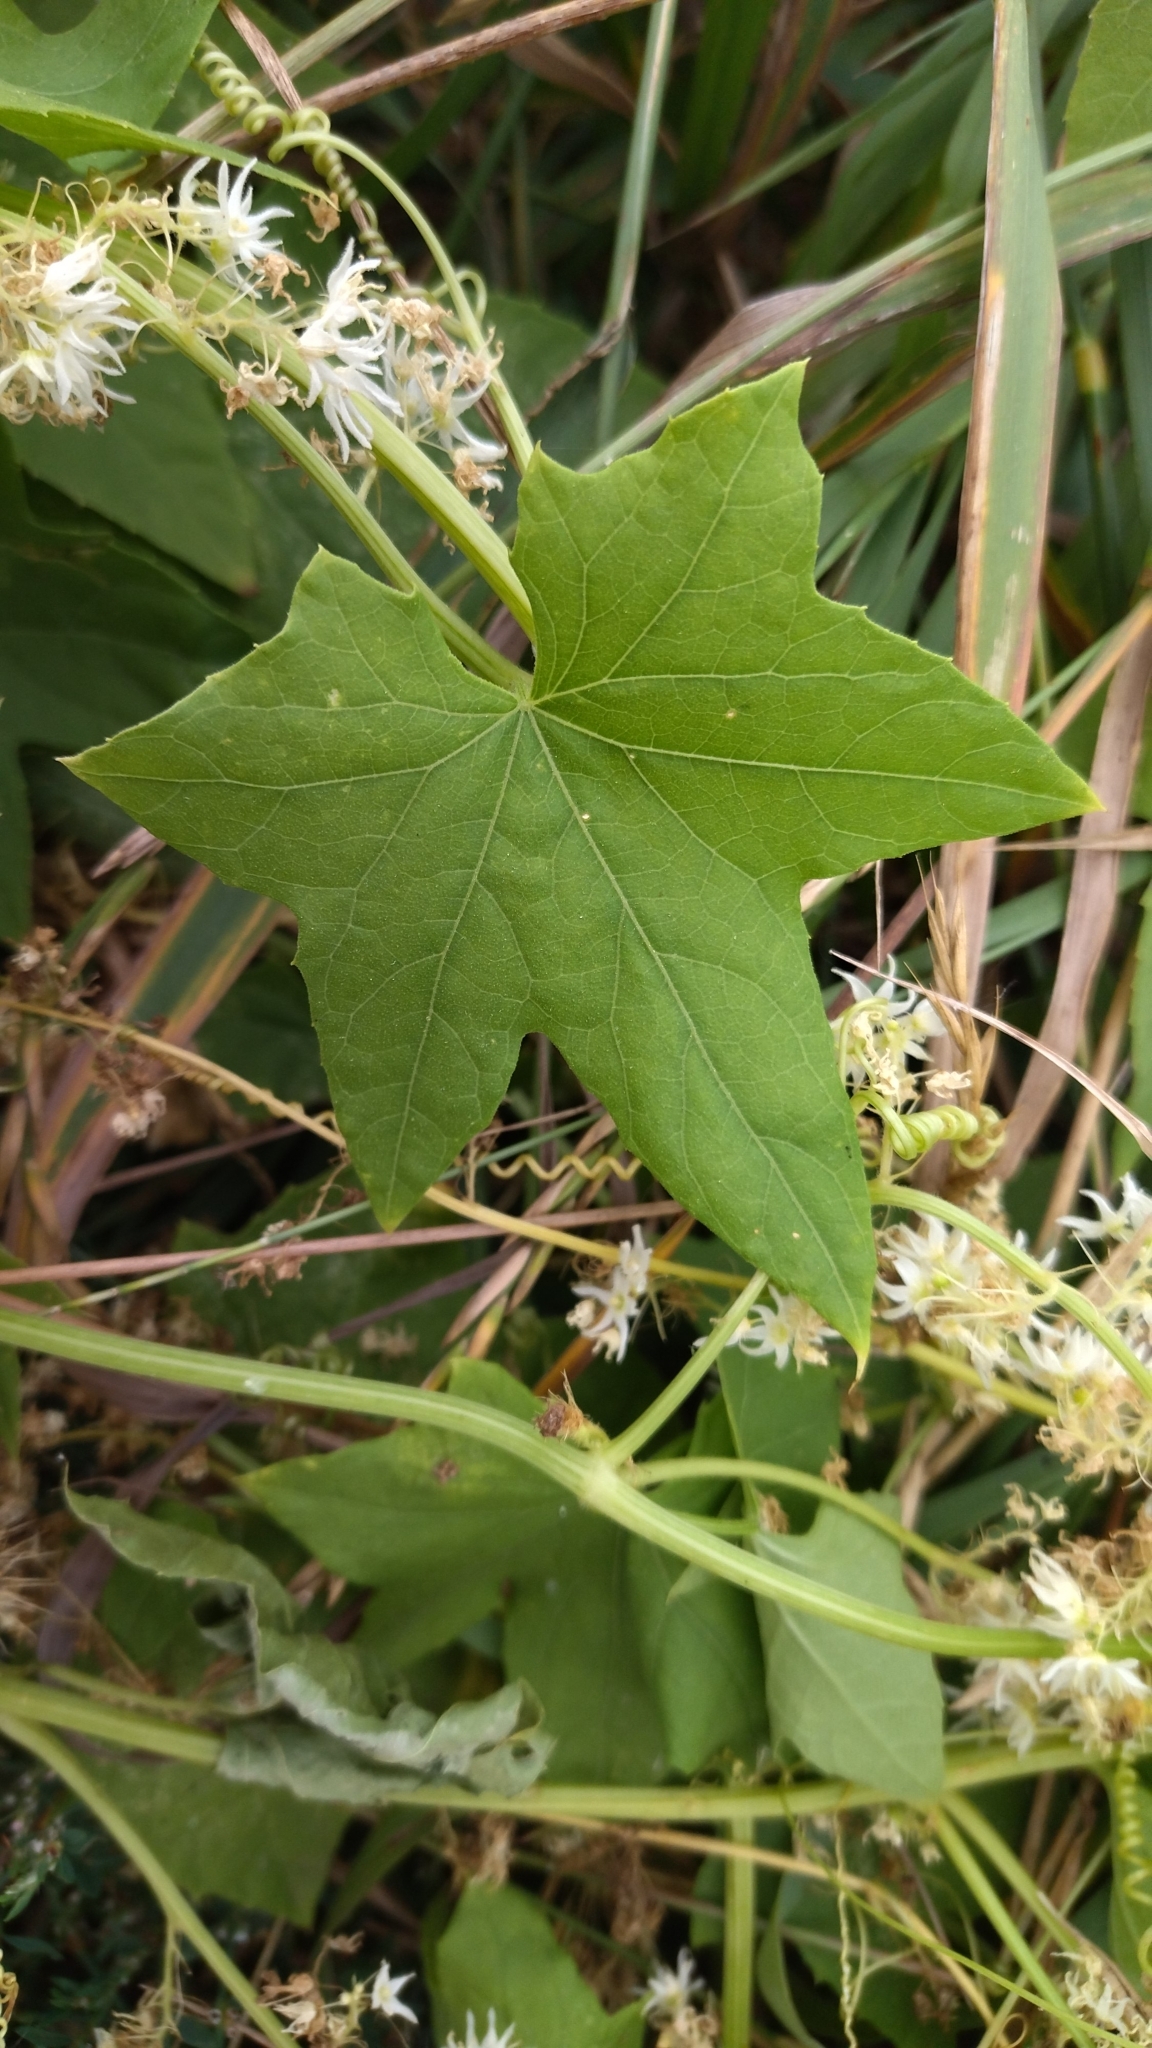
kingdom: Plantae
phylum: Tracheophyta
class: Magnoliopsida
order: Cucurbitales
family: Cucurbitaceae
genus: Echinocystis
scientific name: Echinocystis lobata
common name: Wild cucumber
